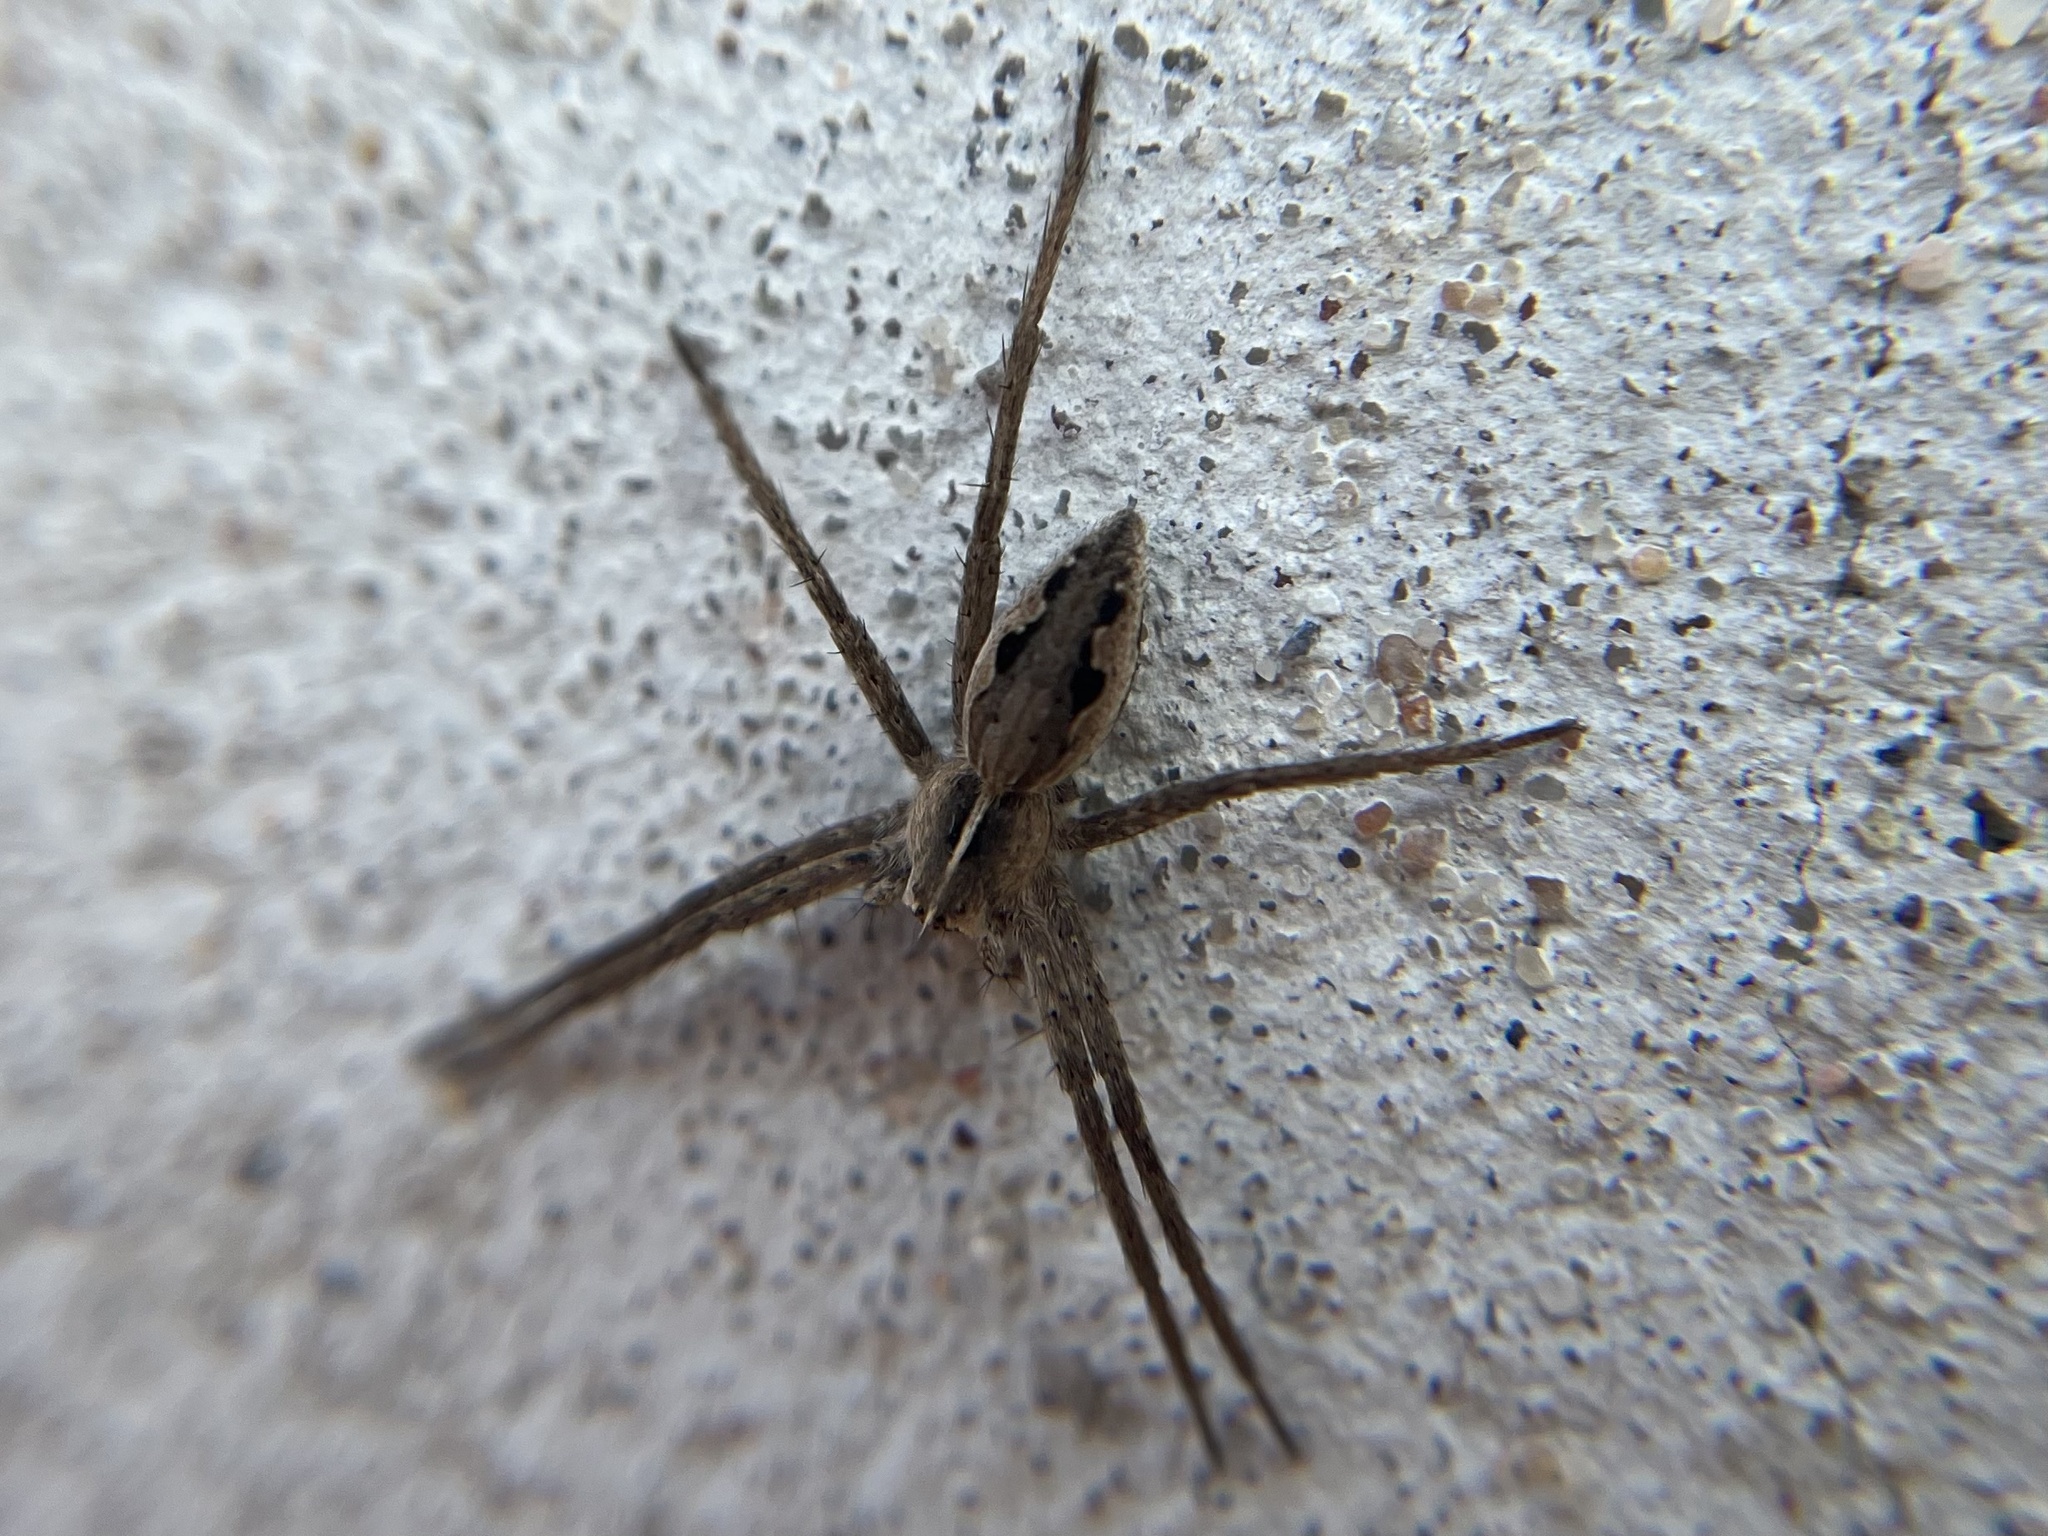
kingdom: Animalia
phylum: Arthropoda
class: Arachnida
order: Araneae
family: Pisauridae
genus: Pisaura
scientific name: Pisaura mirabilis
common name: Tent spider
